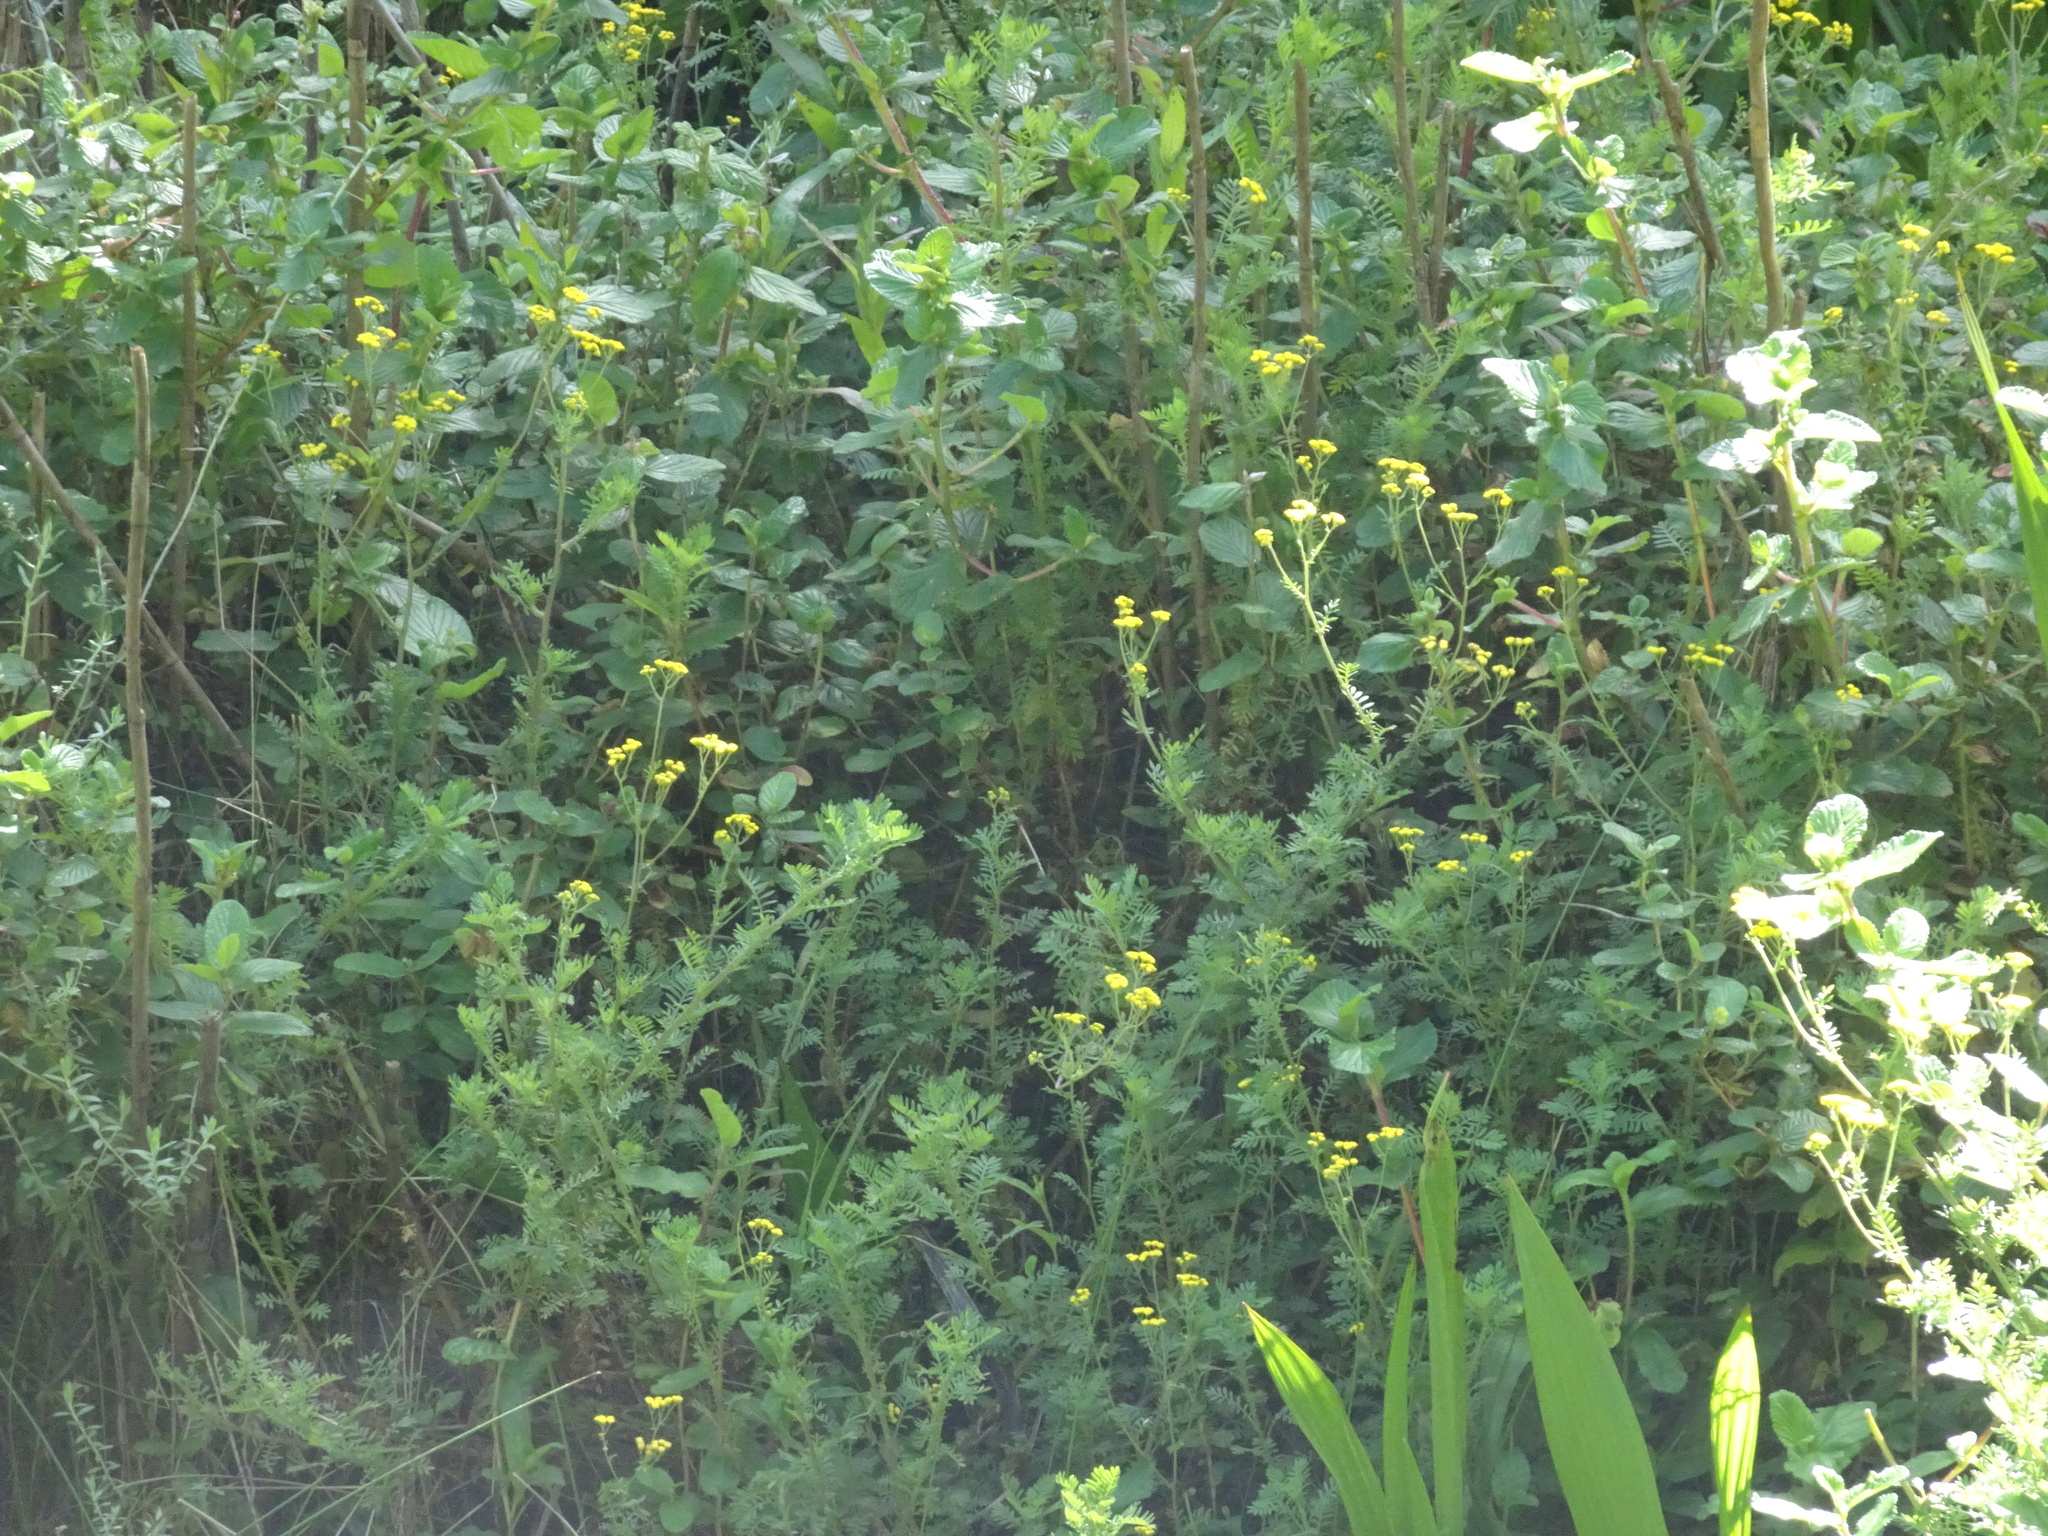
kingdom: Plantae
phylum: Tracheophyta
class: Magnoliopsida
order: Asterales
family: Asteraceae
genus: Hippia
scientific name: Hippia frutescens
